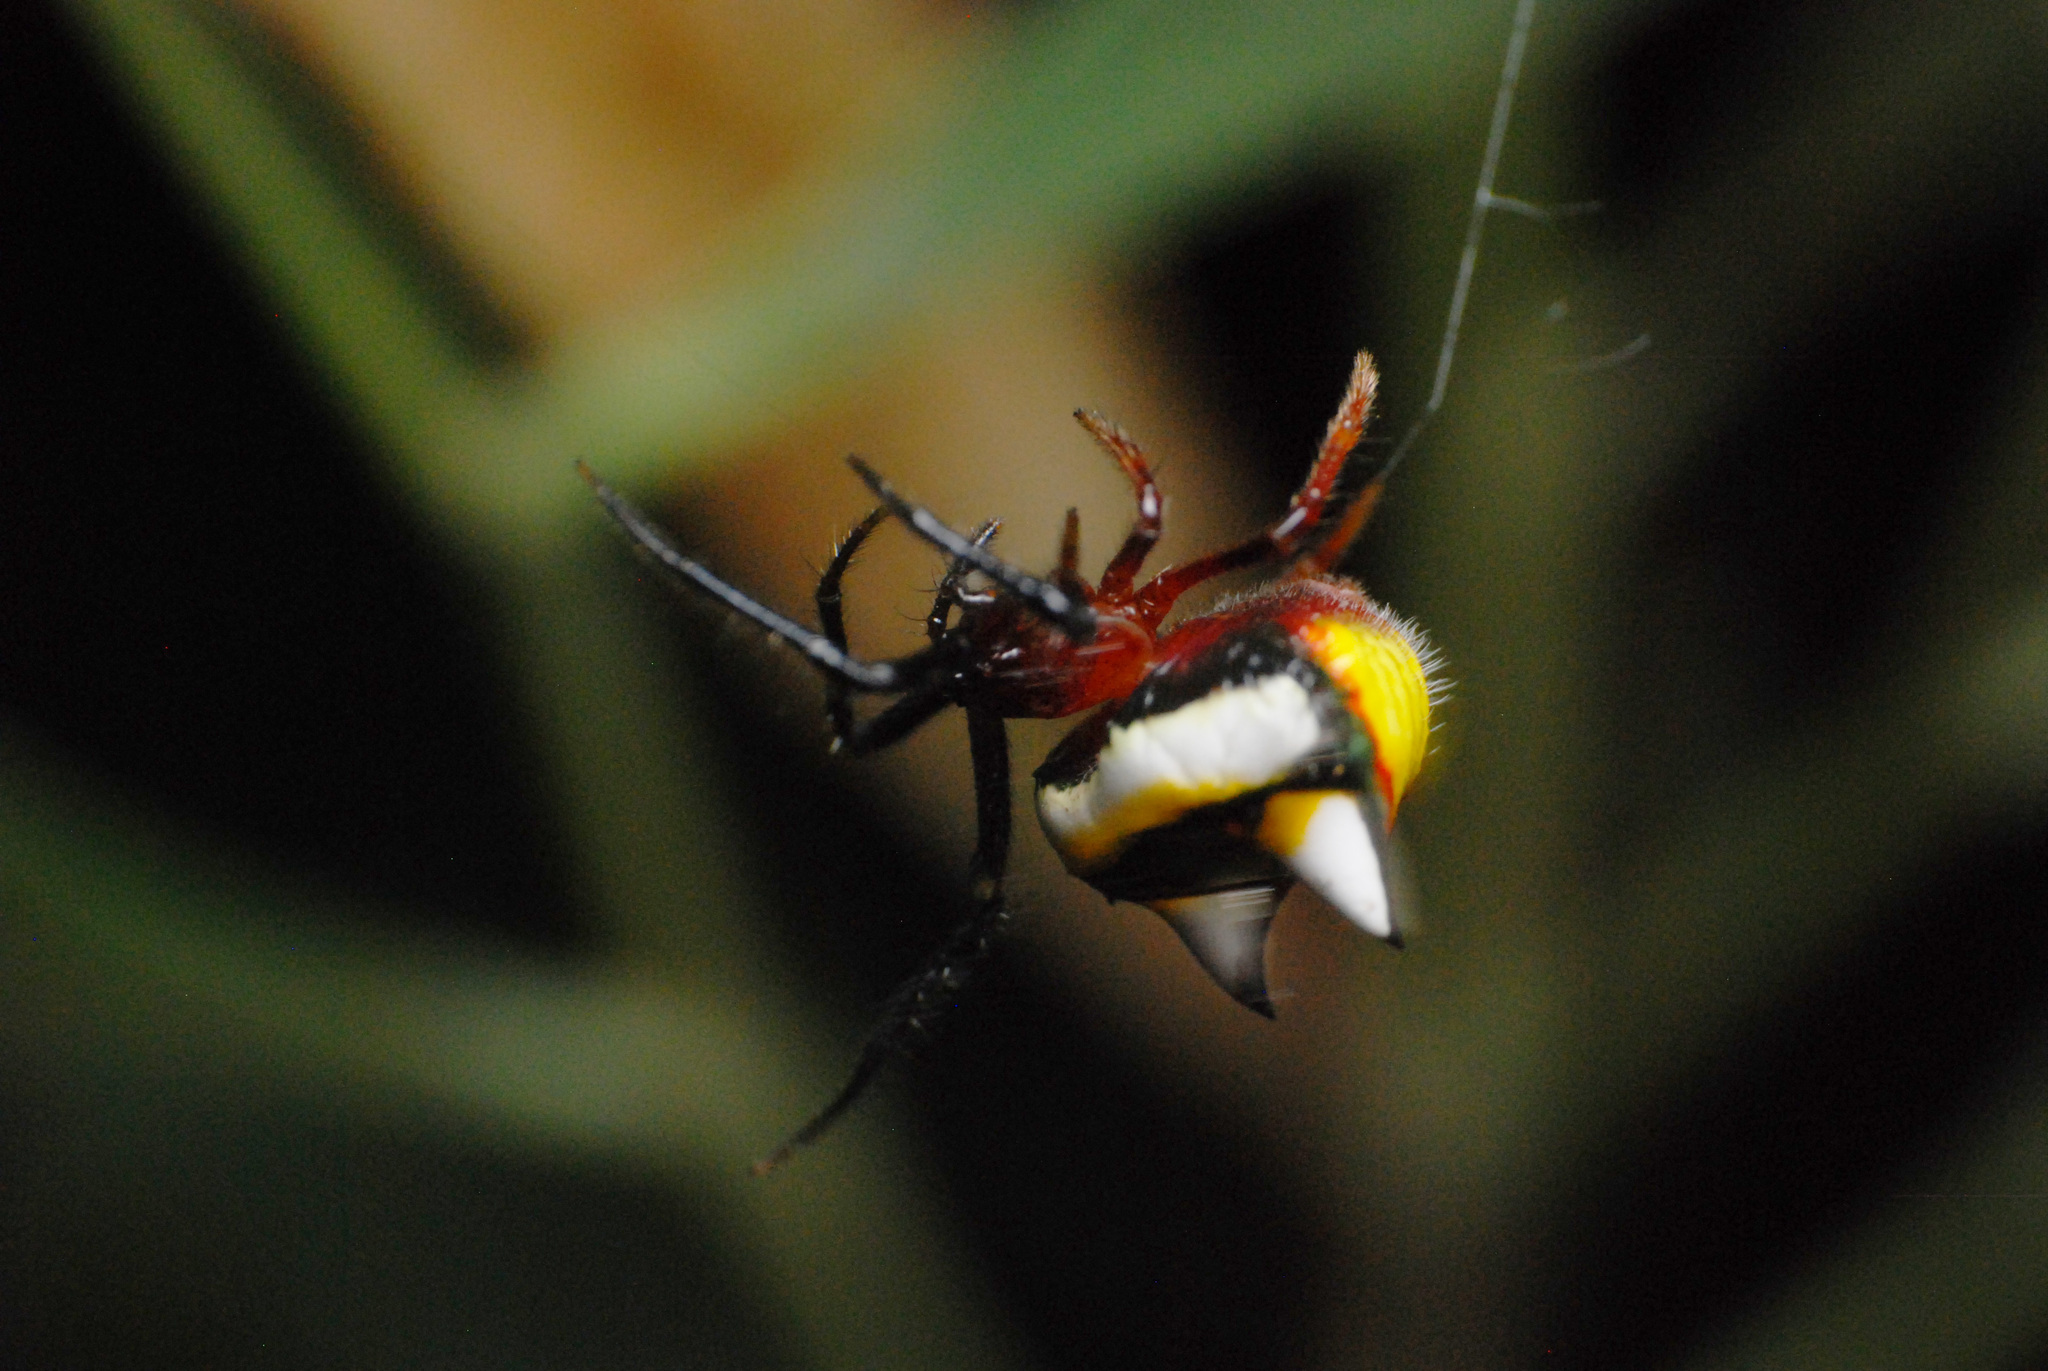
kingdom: Animalia
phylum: Arthropoda
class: Arachnida
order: Araneae
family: Araneidae
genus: Poecilopachys
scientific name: Poecilopachys australasia
